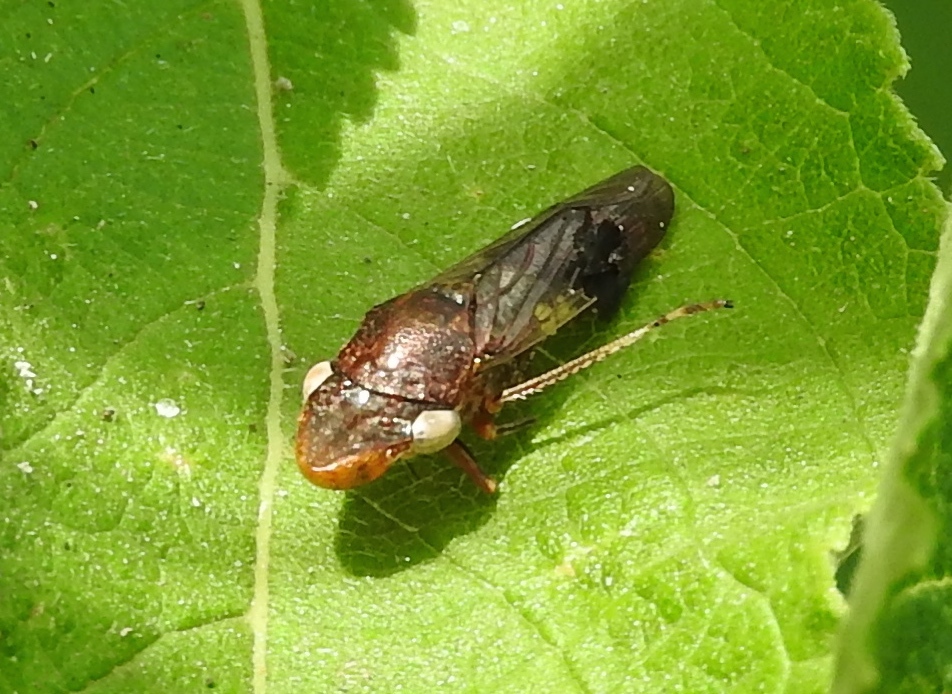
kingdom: Animalia
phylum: Arthropoda
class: Insecta
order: Hemiptera
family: Cicadellidae
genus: Homalodisca
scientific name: Homalodisca ichthyocephala
